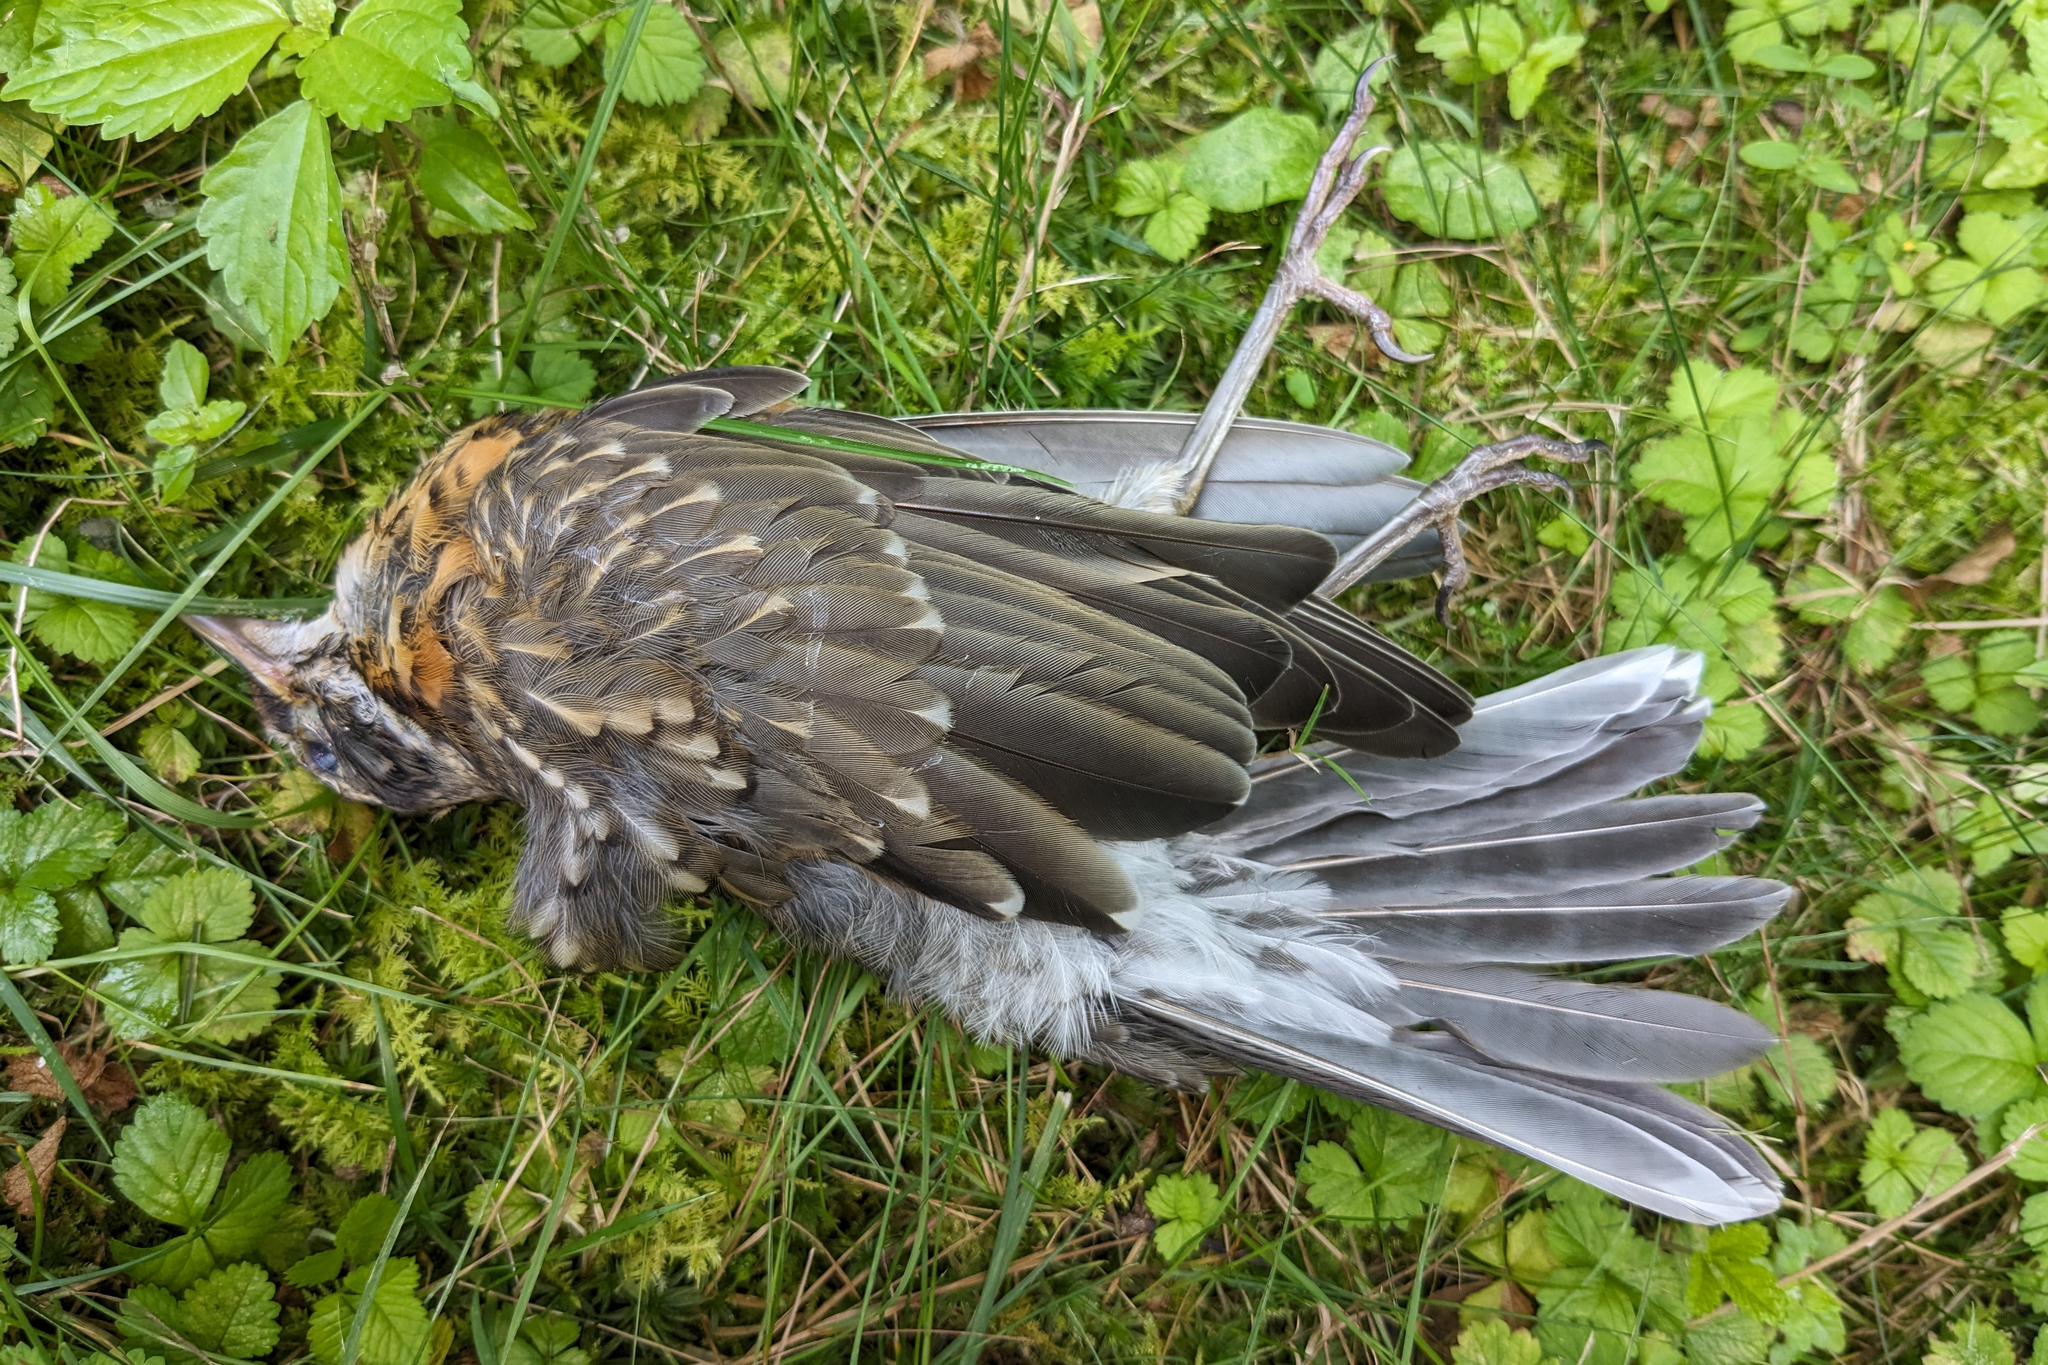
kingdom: Animalia
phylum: Chordata
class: Aves
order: Passeriformes
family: Turdidae
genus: Turdus
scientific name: Turdus migratorius
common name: American robin
